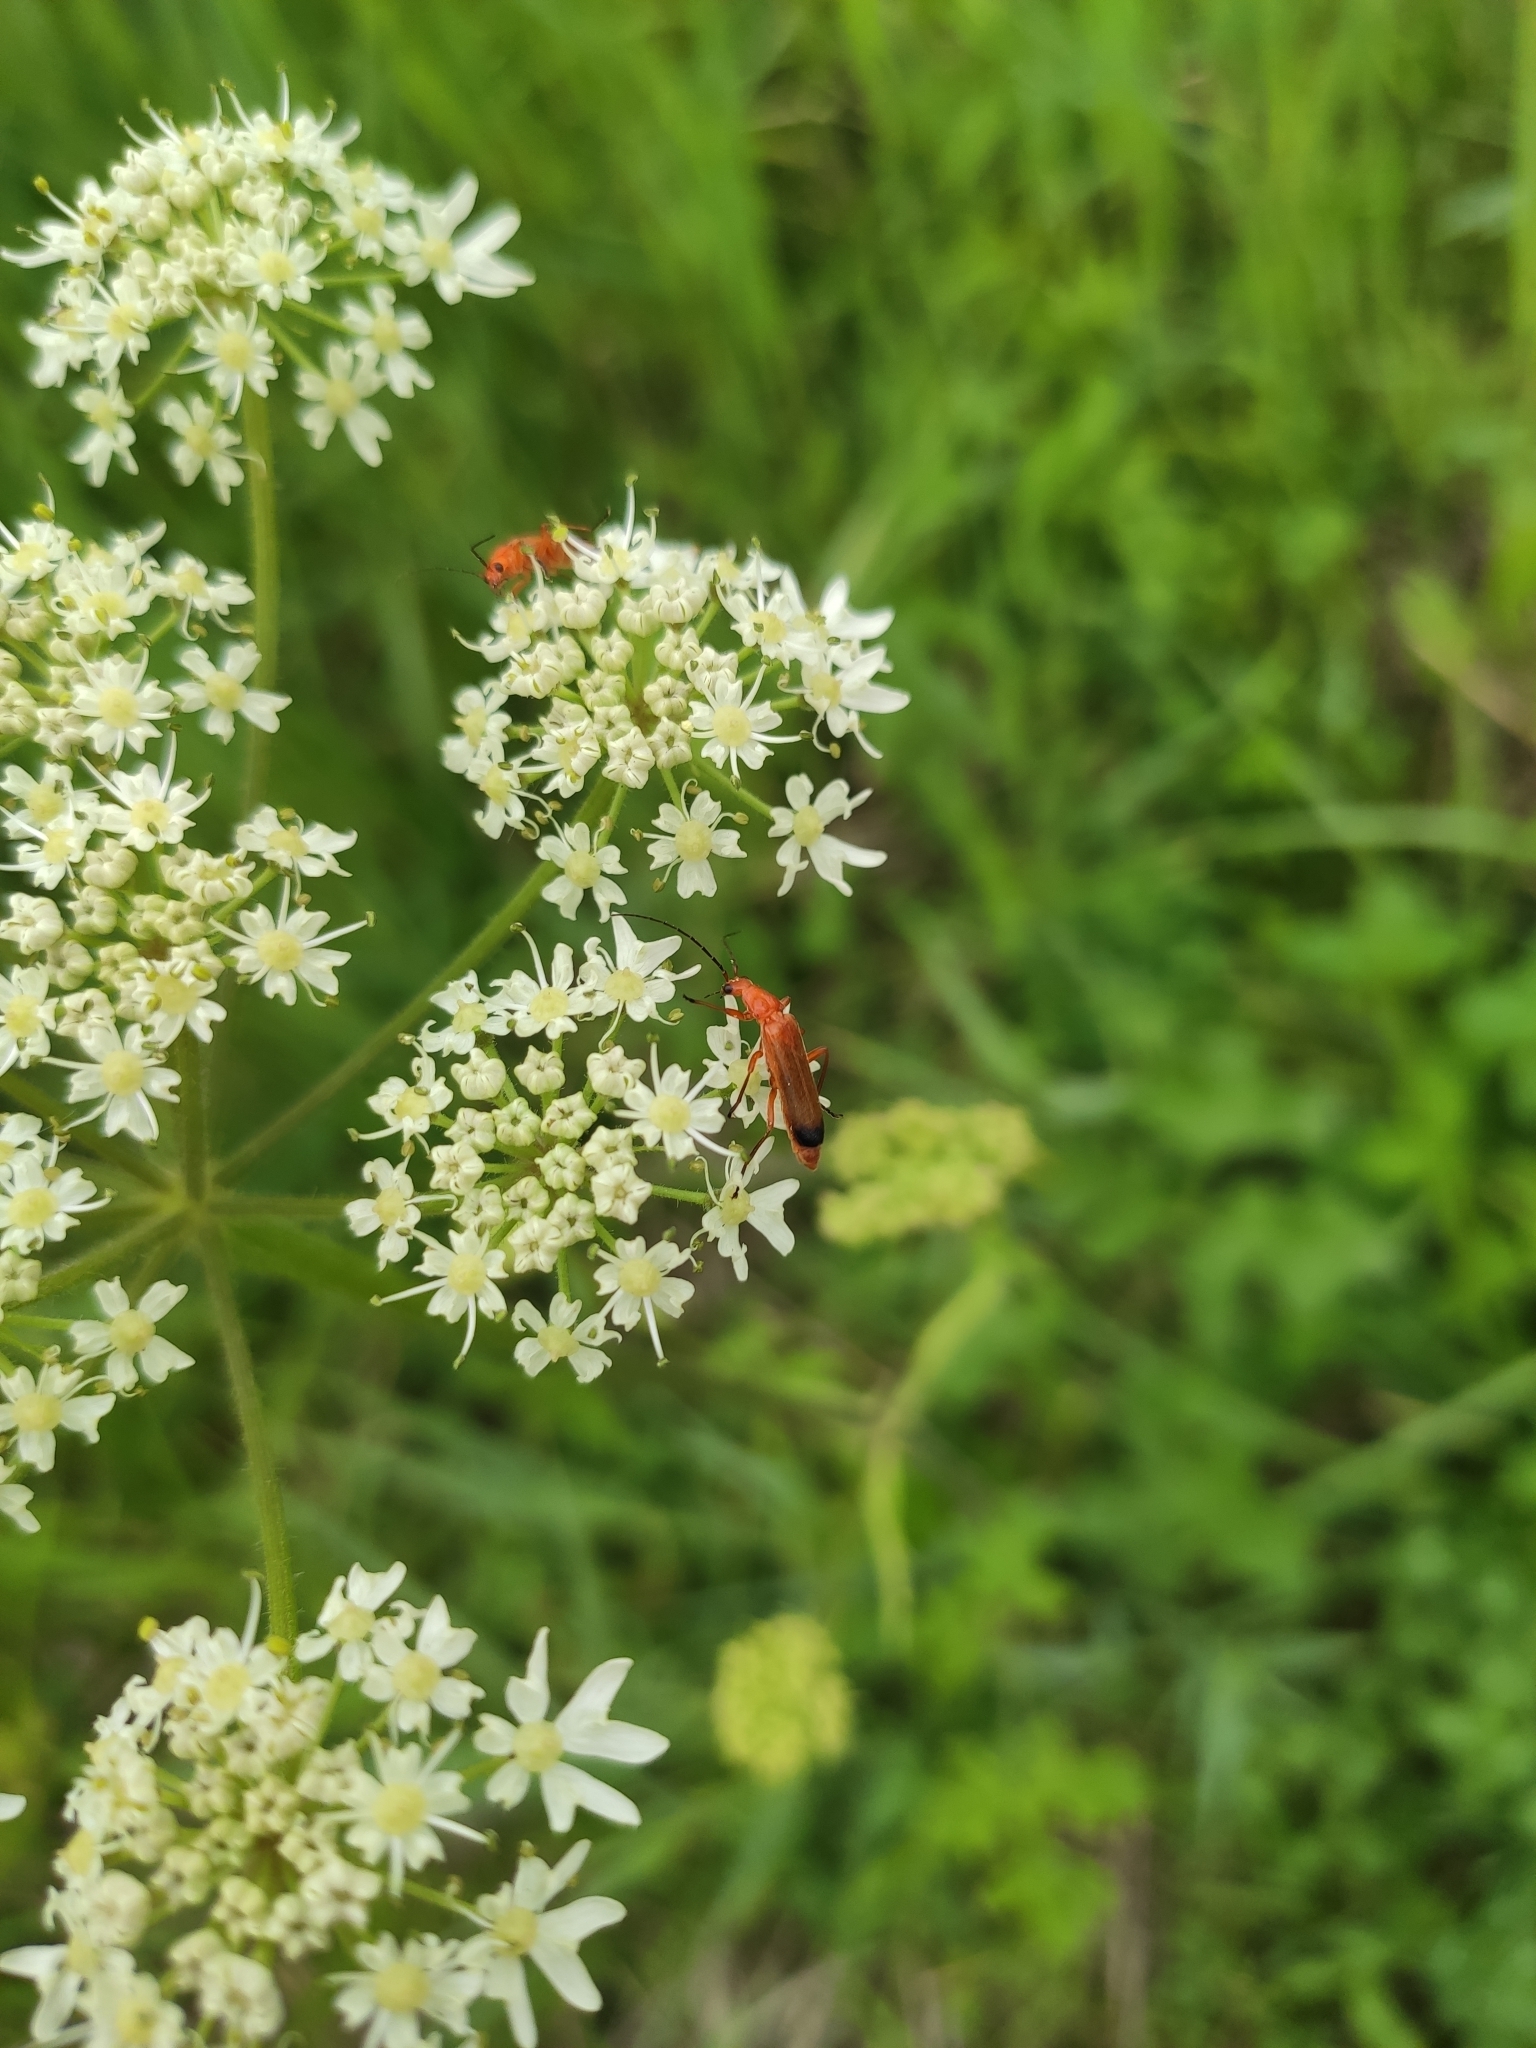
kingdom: Animalia
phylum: Arthropoda
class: Insecta
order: Coleoptera
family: Cantharidae
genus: Rhagonycha
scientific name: Rhagonycha fulva
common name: Common red soldier beetle
